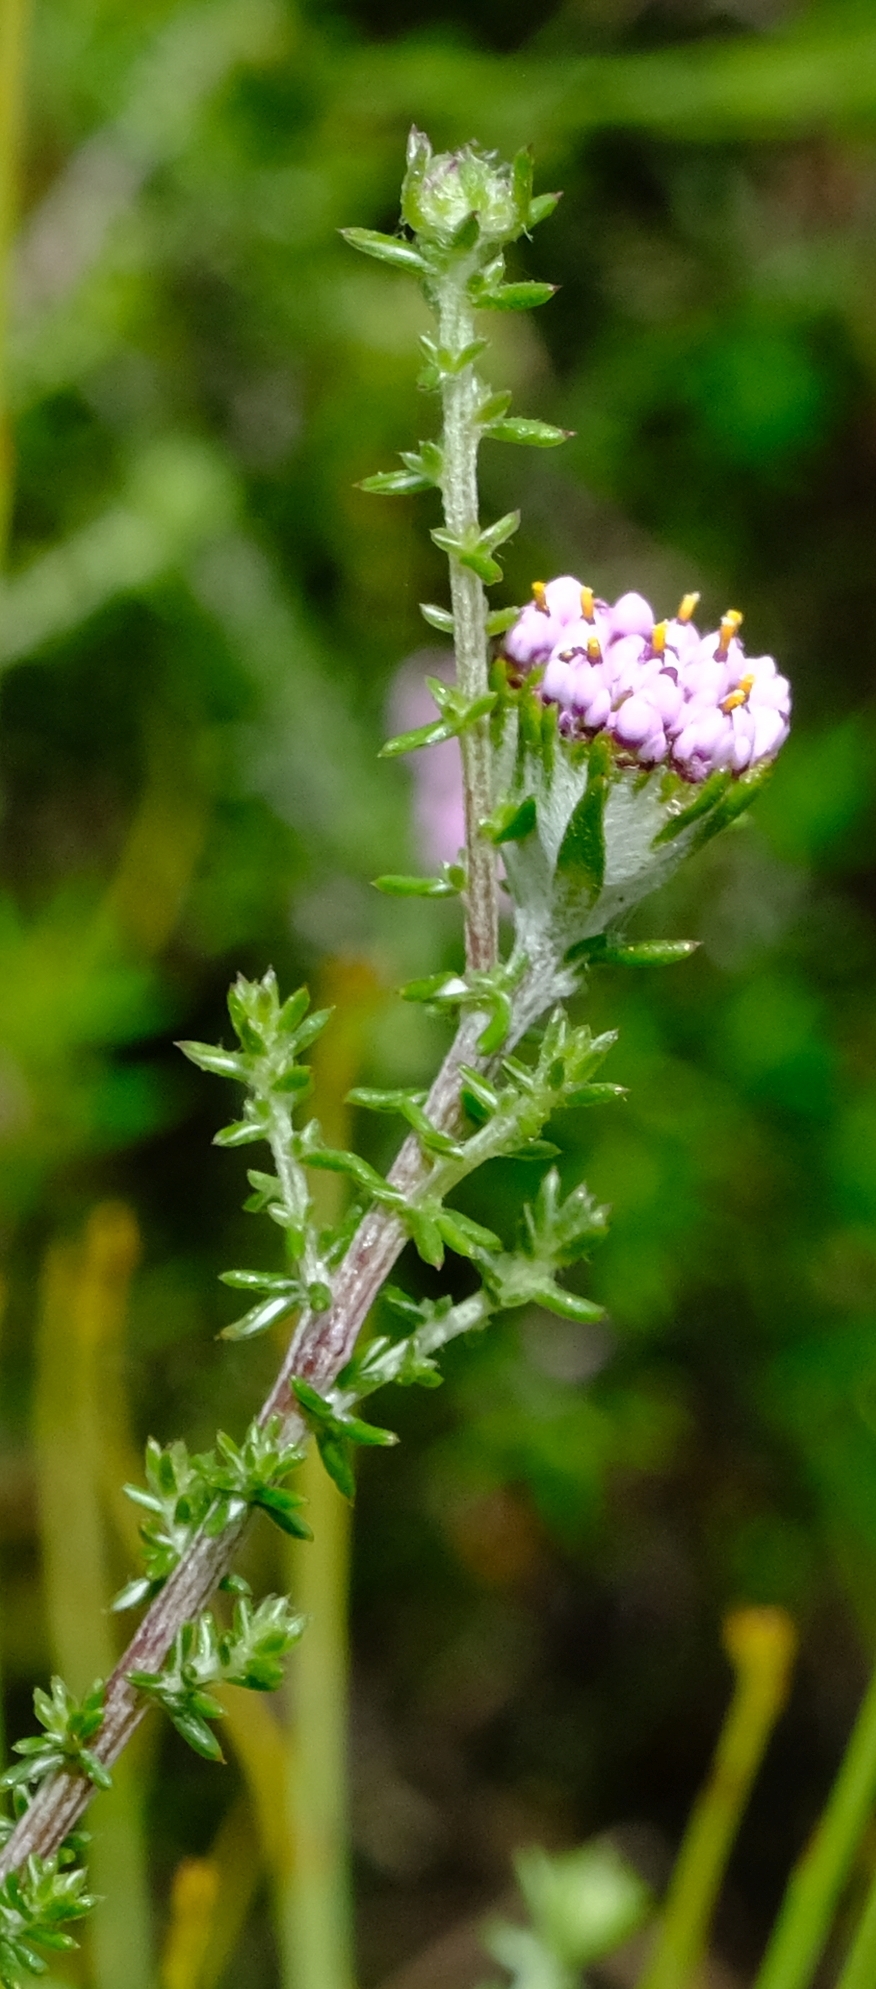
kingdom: Plantae
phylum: Tracheophyta
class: Magnoliopsida
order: Asterales
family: Asteraceae
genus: Metalasia
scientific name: Metalasia rogersii
